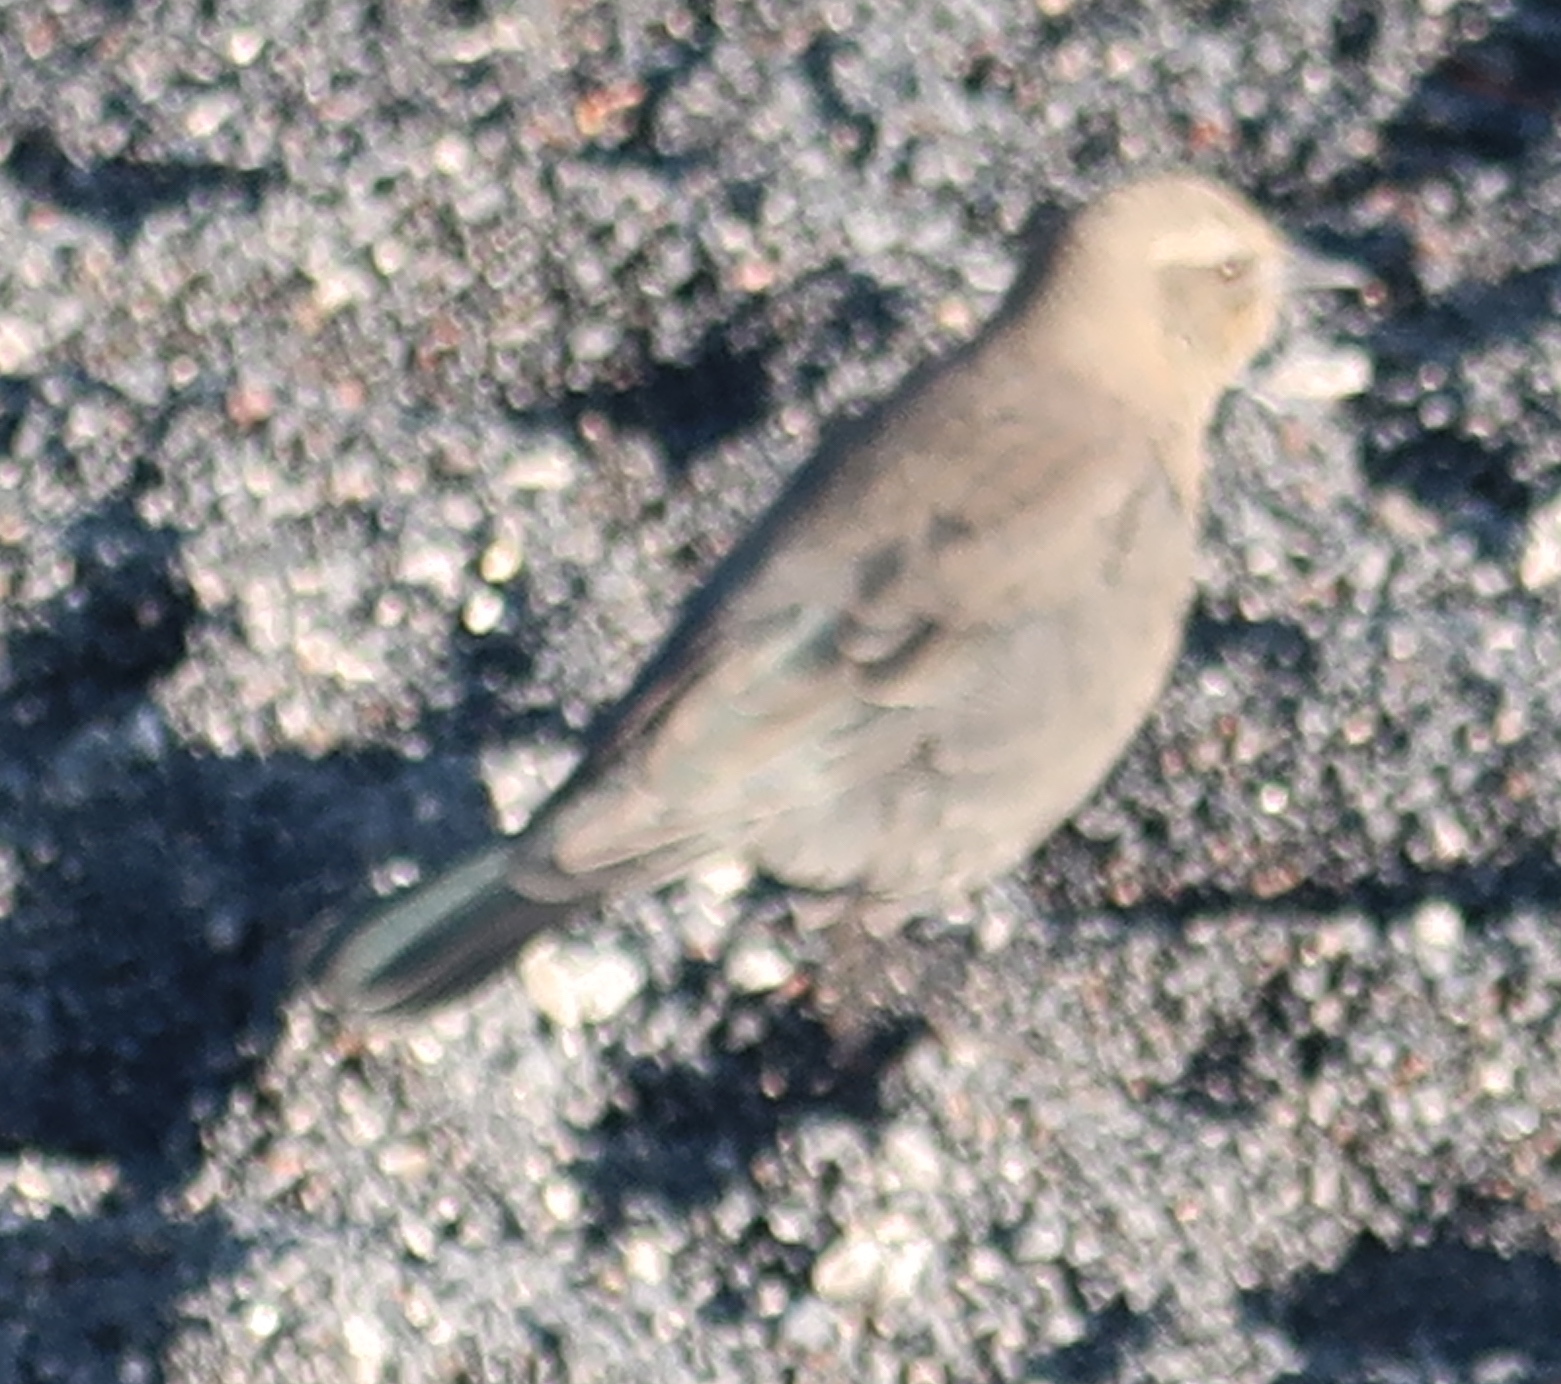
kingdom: Animalia
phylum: Chordata
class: Aves
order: Passeriformes
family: Icteridae
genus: Euphagus
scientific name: Euphagus cyanocephalus
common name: Brewer's blackbird
